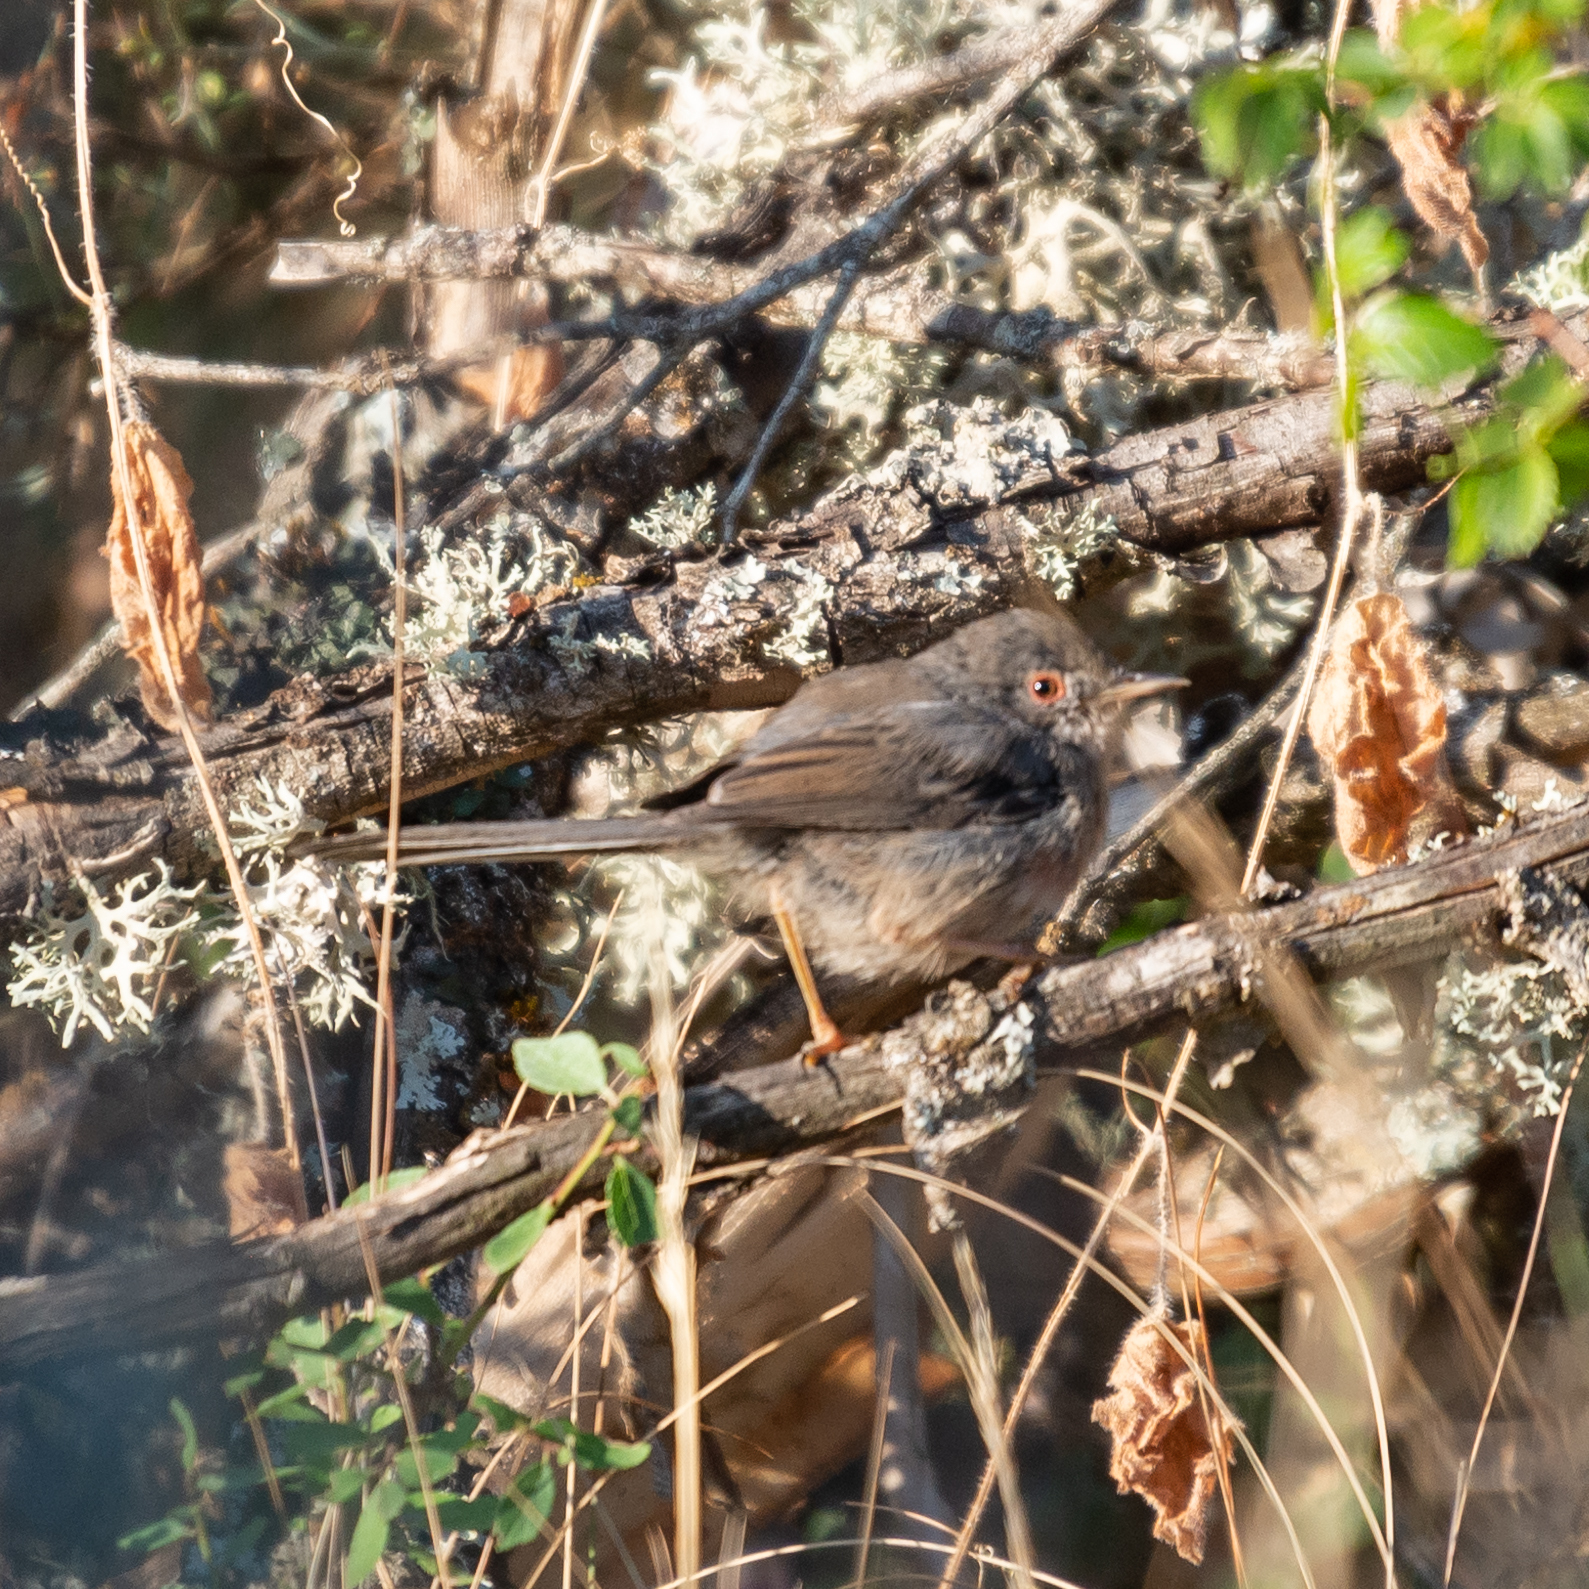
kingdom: Animalia
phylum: Chordata
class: Aves
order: Passeriformes
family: Sylviidae
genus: Sylvia
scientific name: Sylvia undata
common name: Dartford warbler
